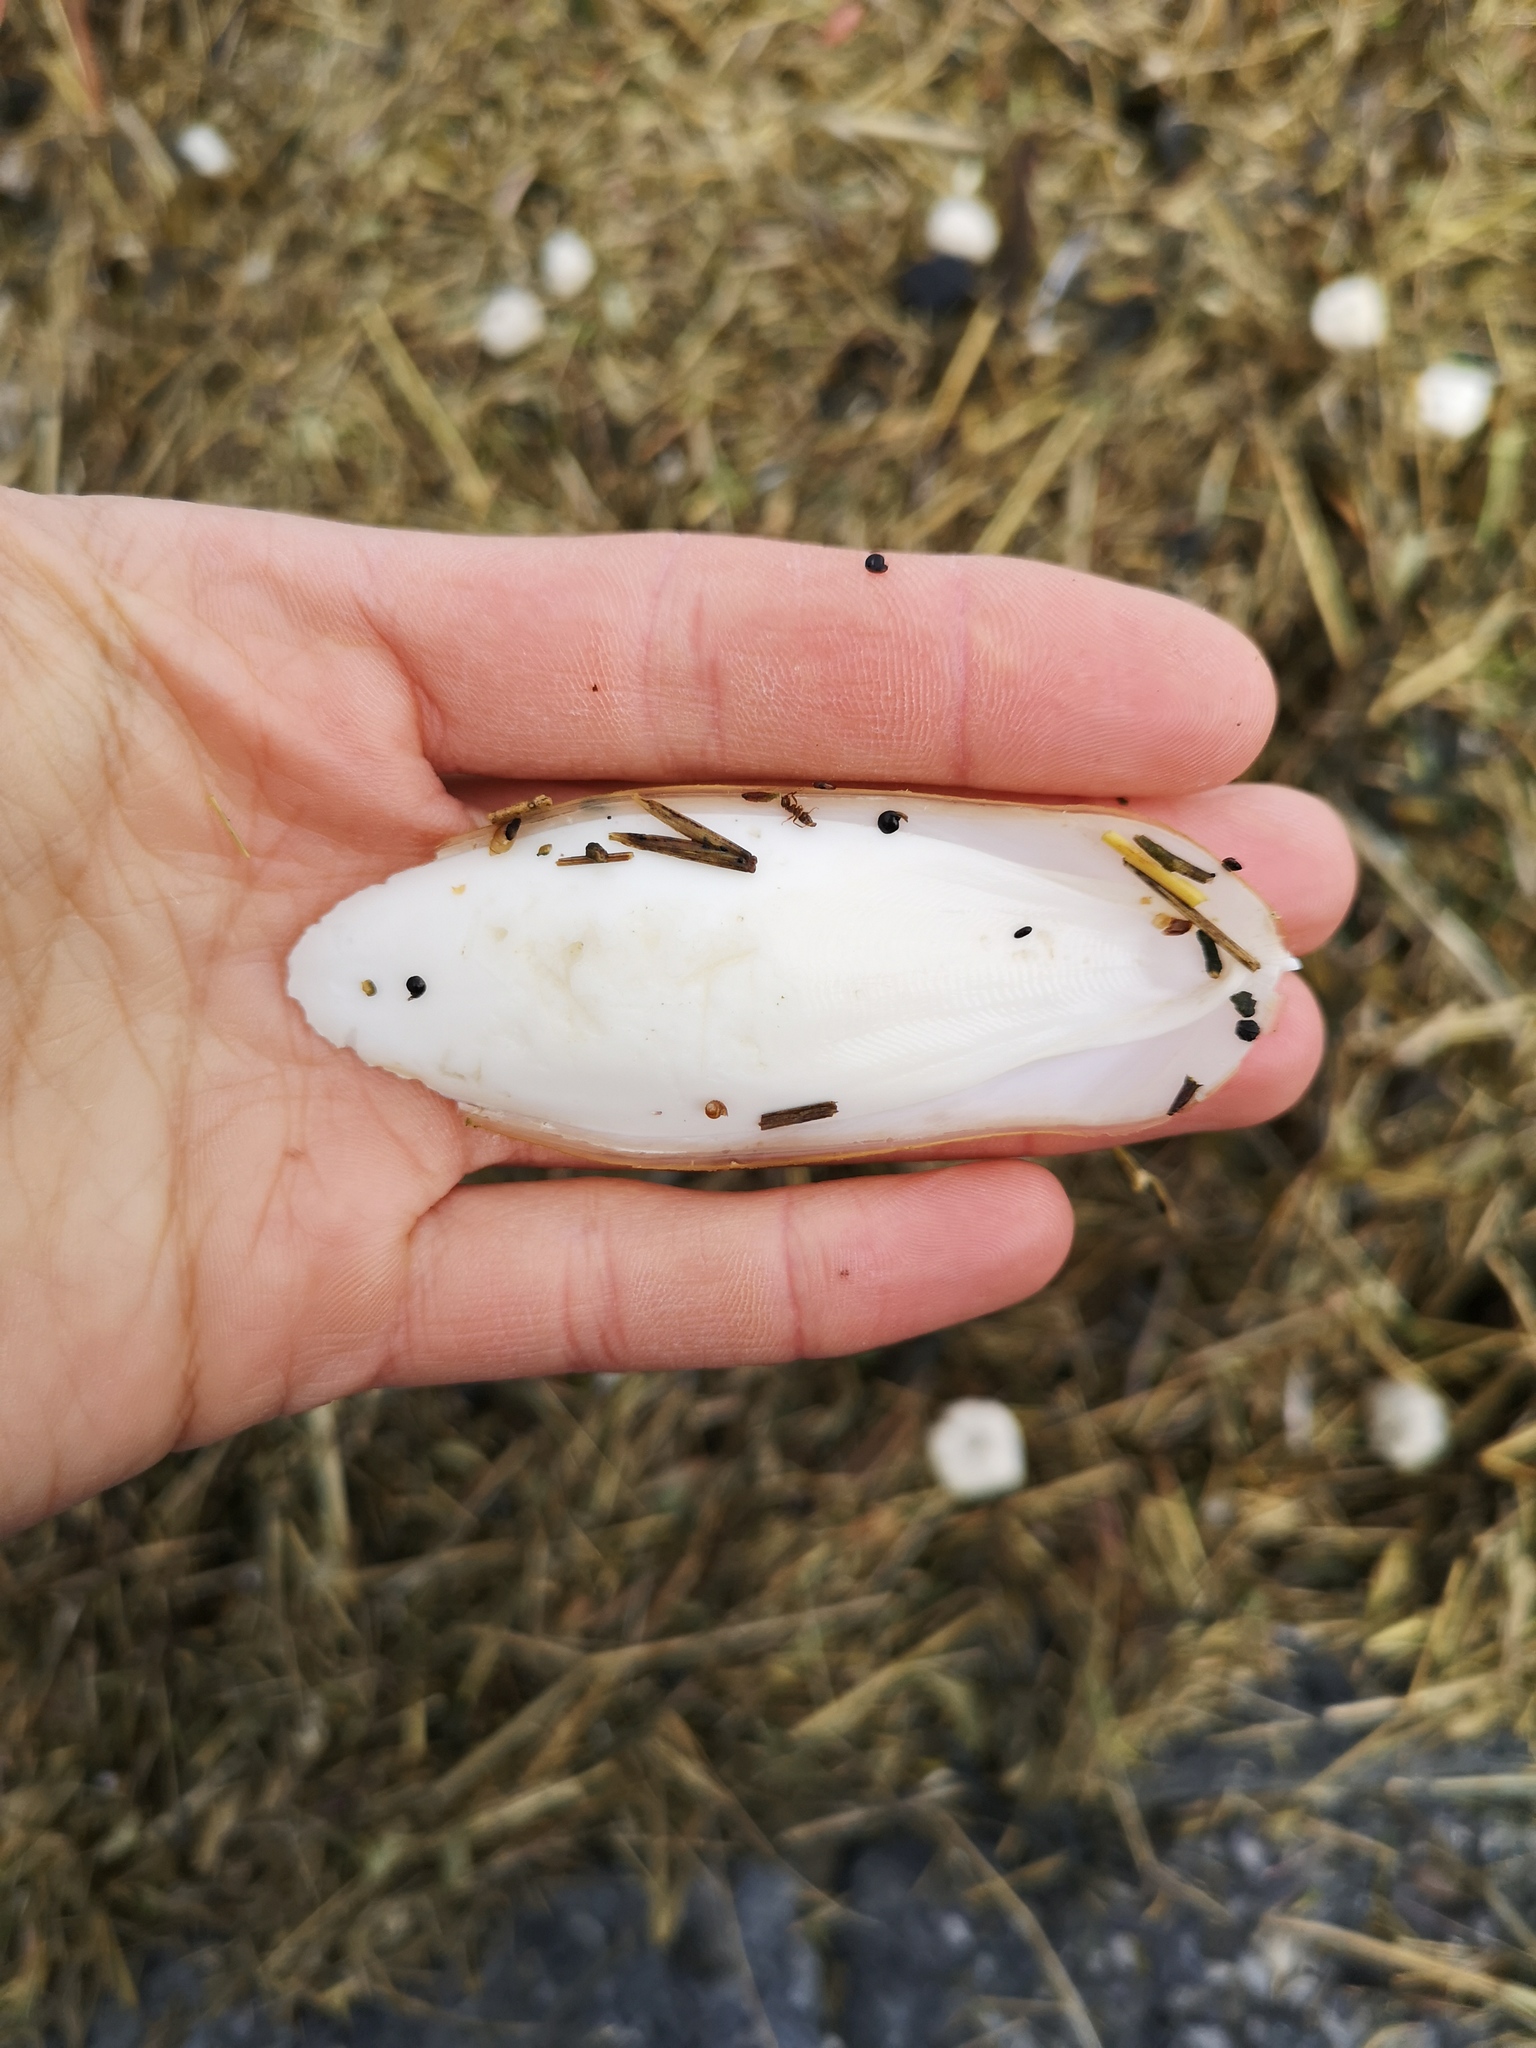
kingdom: Animalia
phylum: Mollusca
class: Cephalopoda
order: Sepiida
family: Sepiidae
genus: Sepia
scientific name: Sepia officinalis
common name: Common cuttlefish
